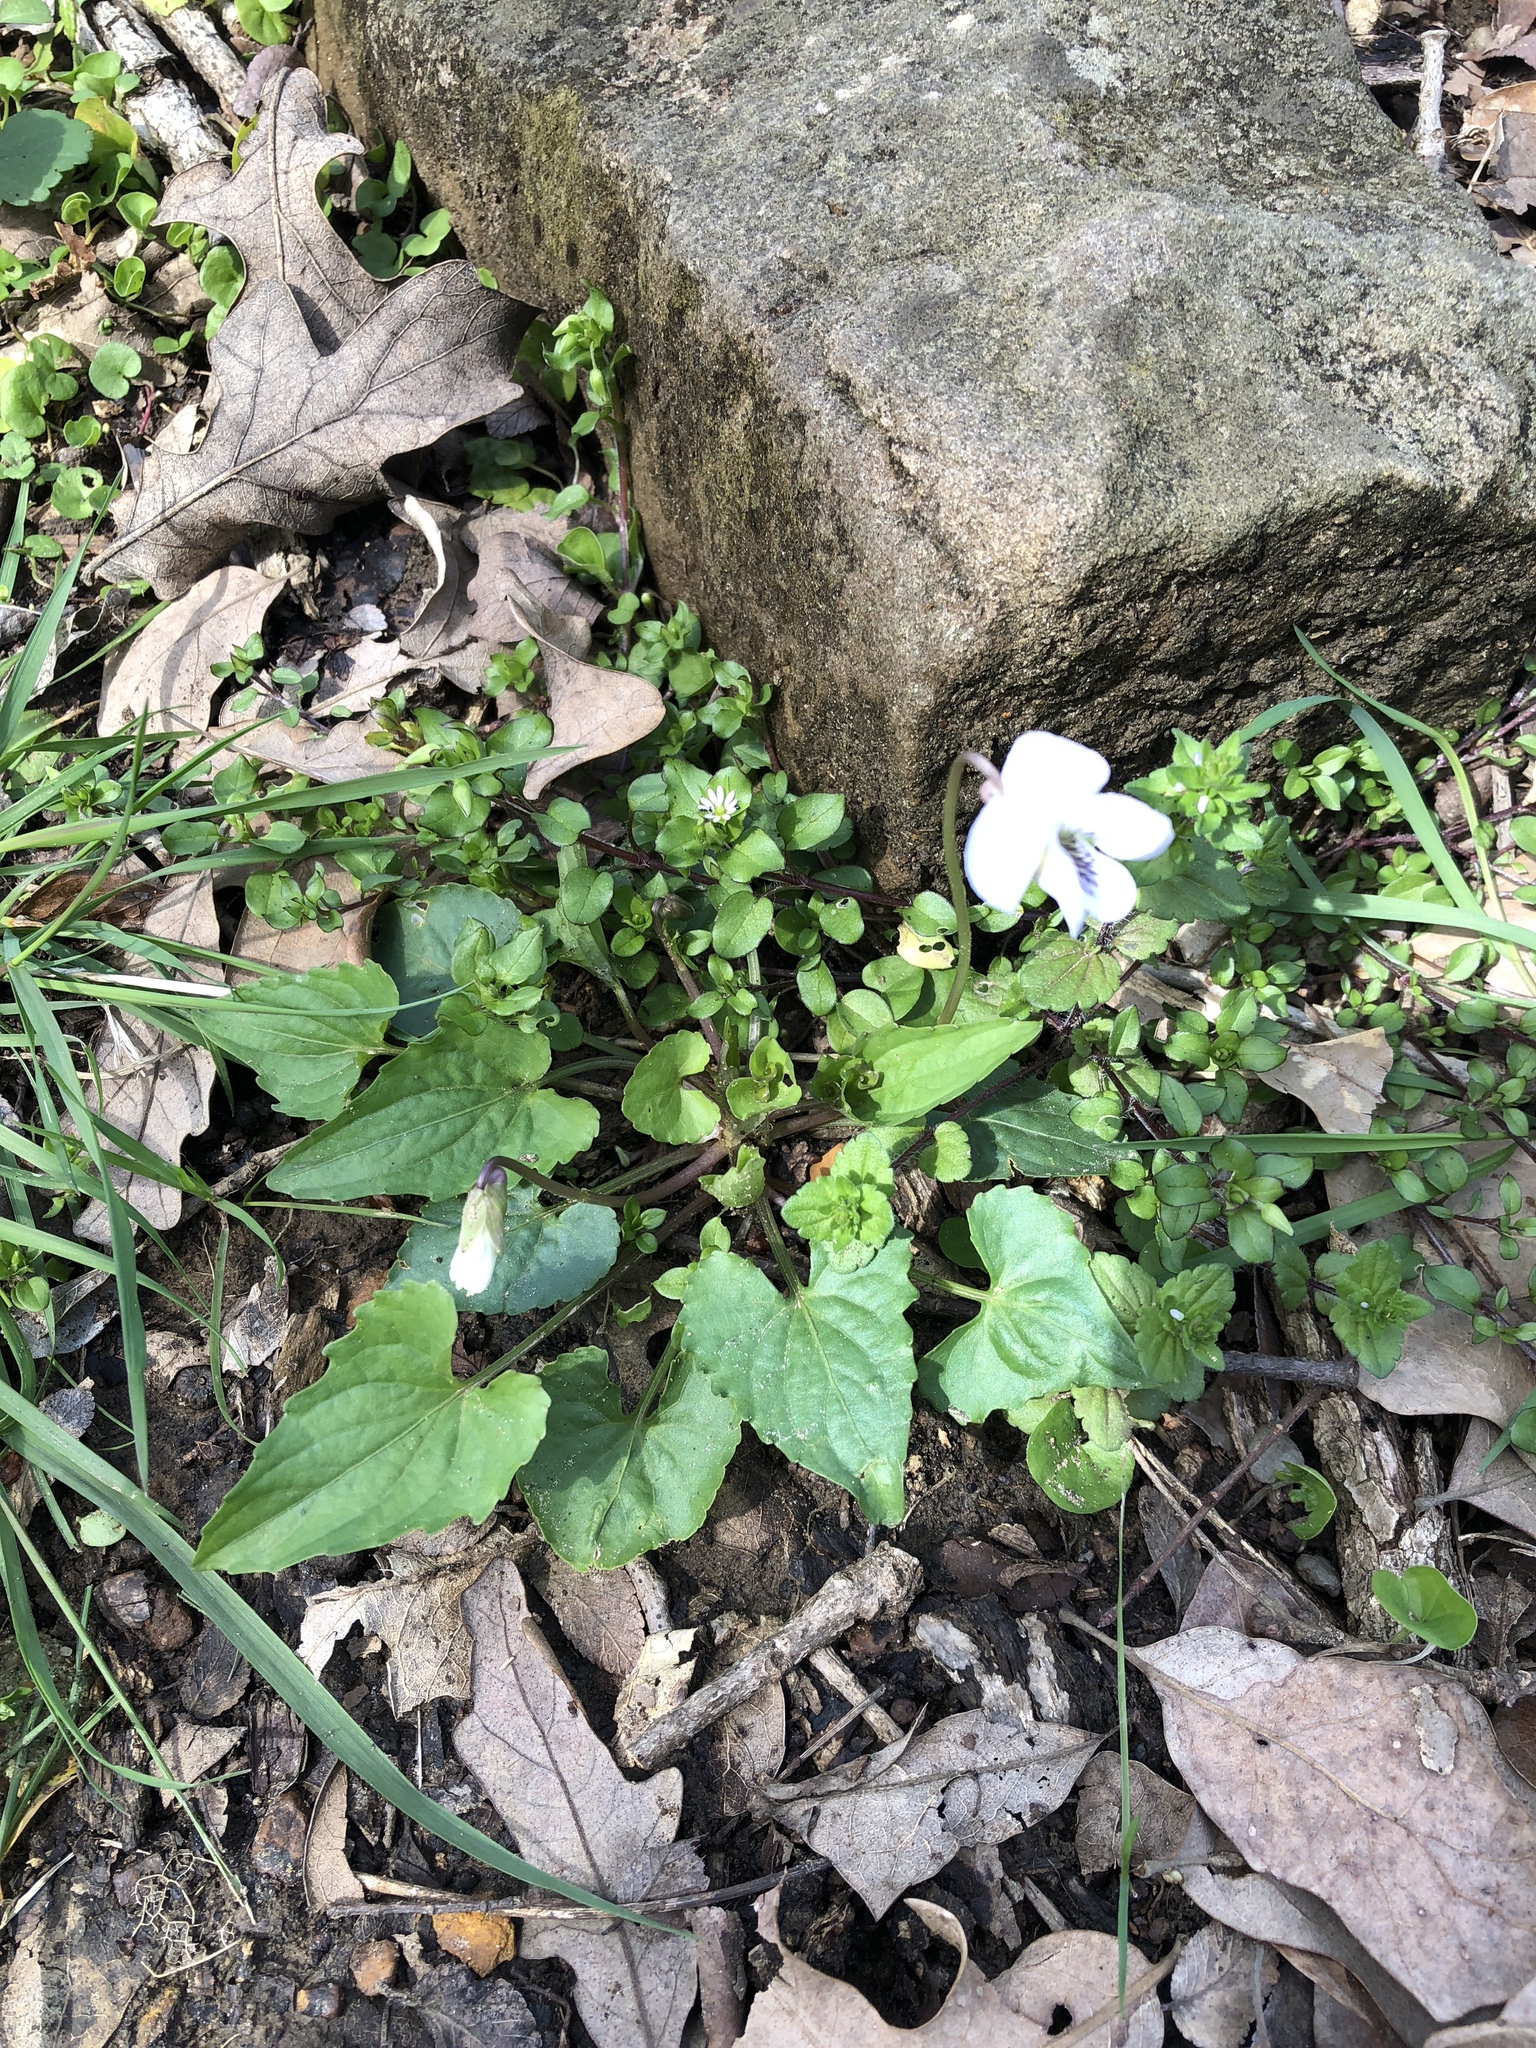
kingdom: Plantae
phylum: Tracheophyta
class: Magnoliopsida
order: Malpighiales
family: Violaceae
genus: Viola
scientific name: Viola missouriensis
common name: Missouri violet
